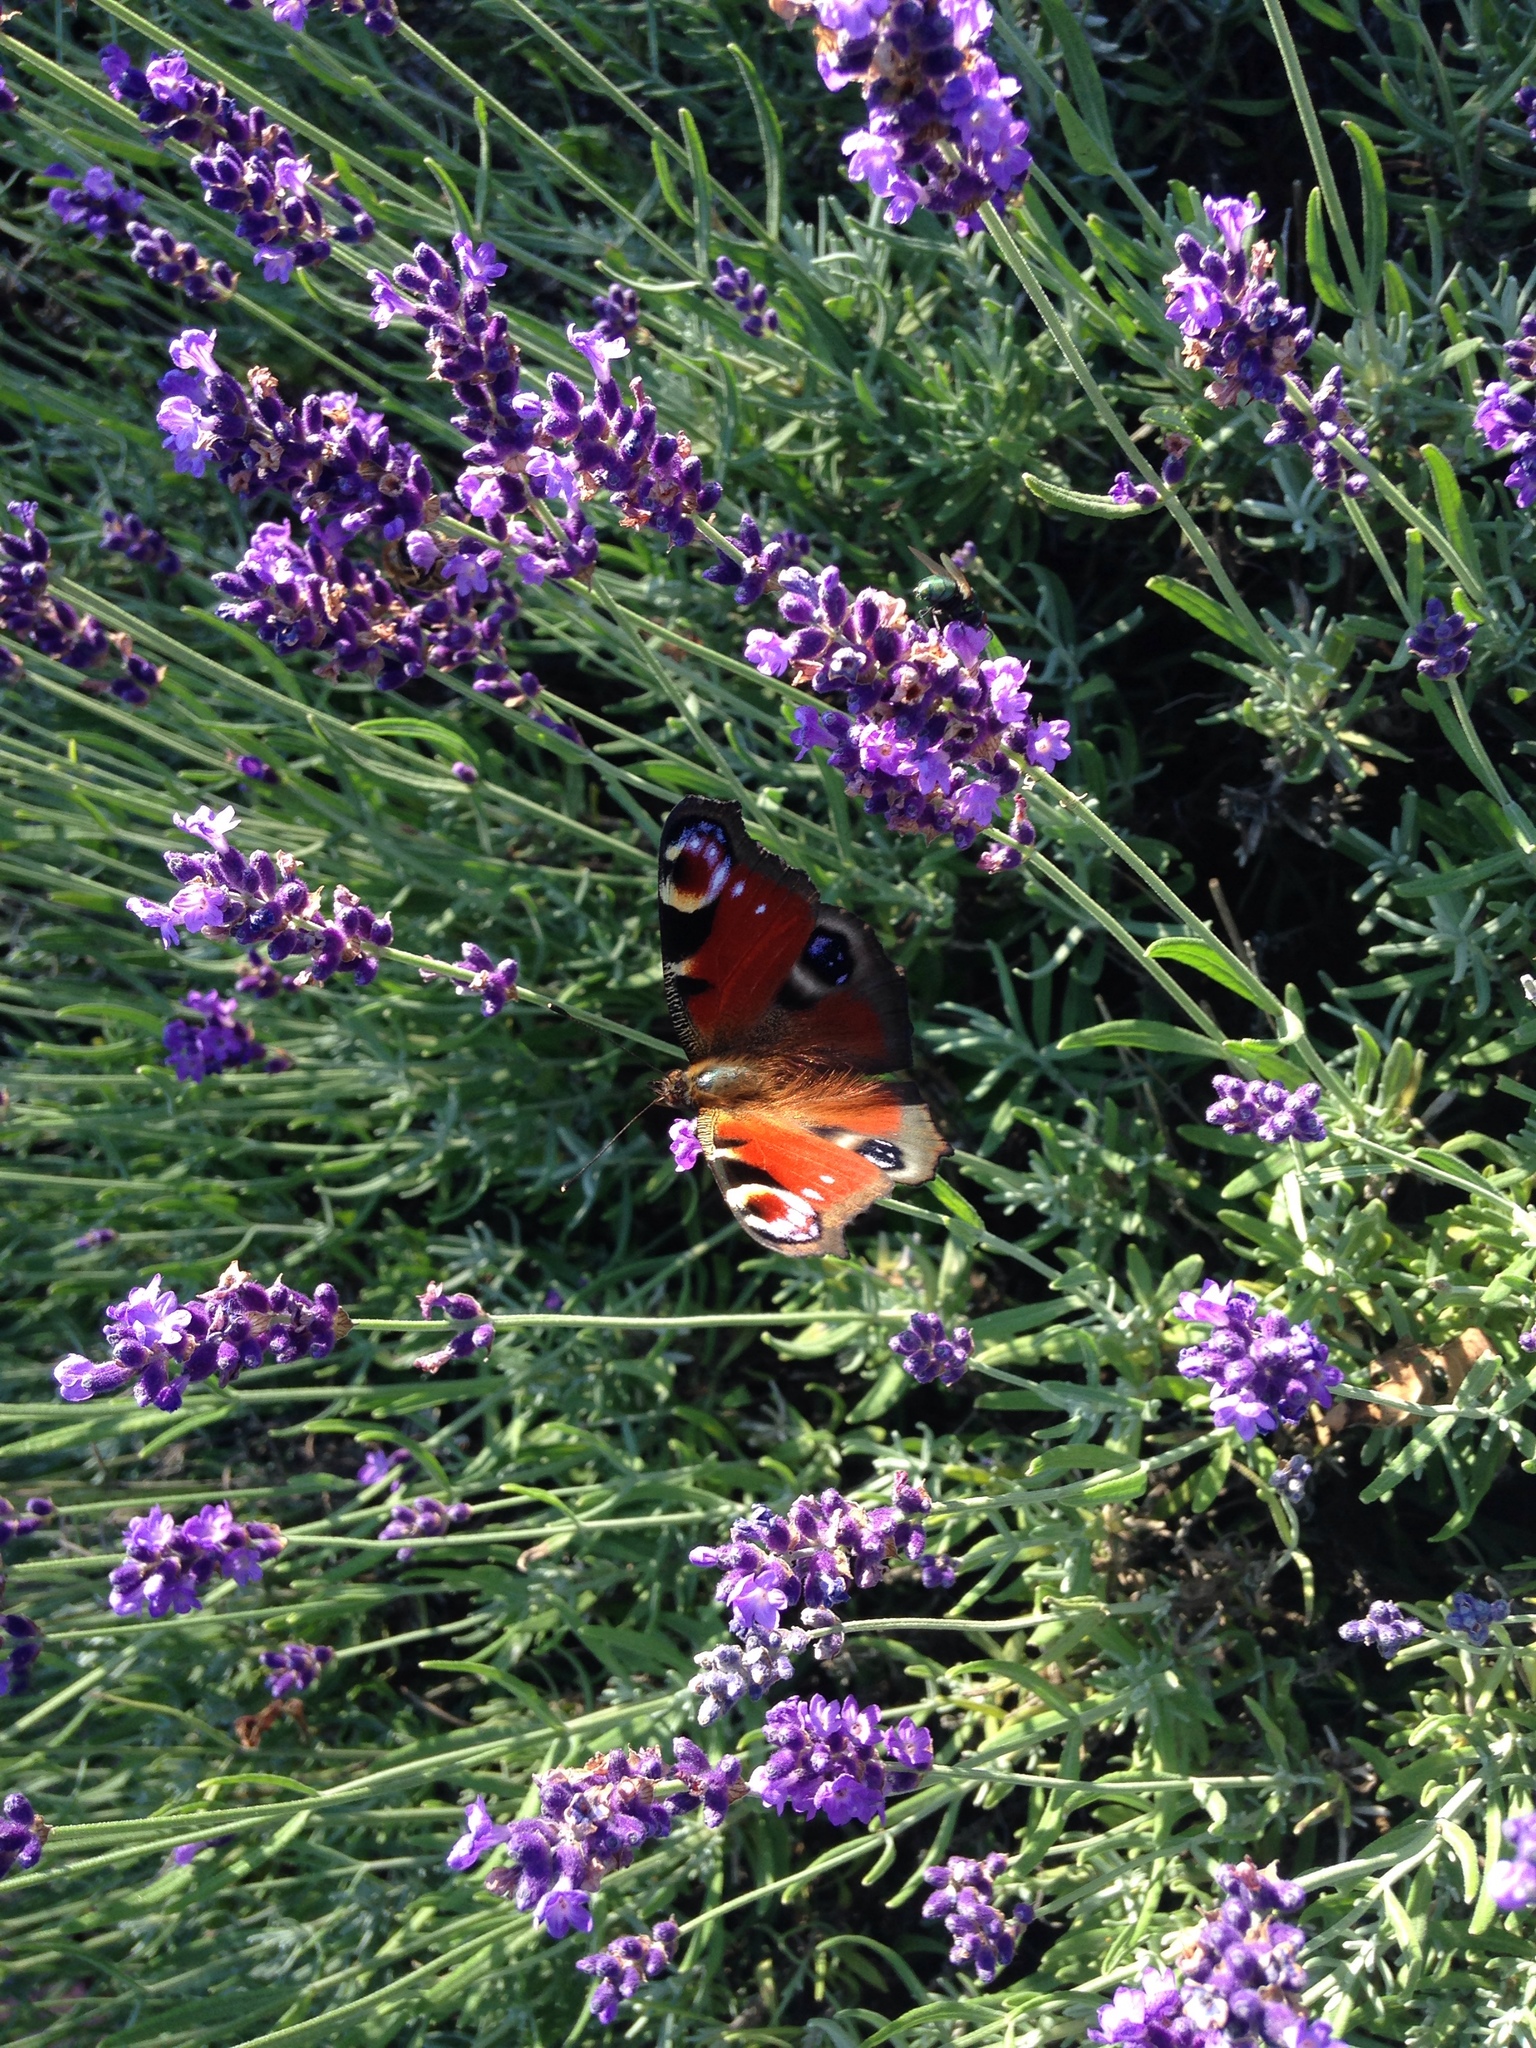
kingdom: Animalia
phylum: Arthropoda
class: Insecta
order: Lepidoptera
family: Nymphalidae
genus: Aglais
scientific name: Aglais io
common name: Peacock
